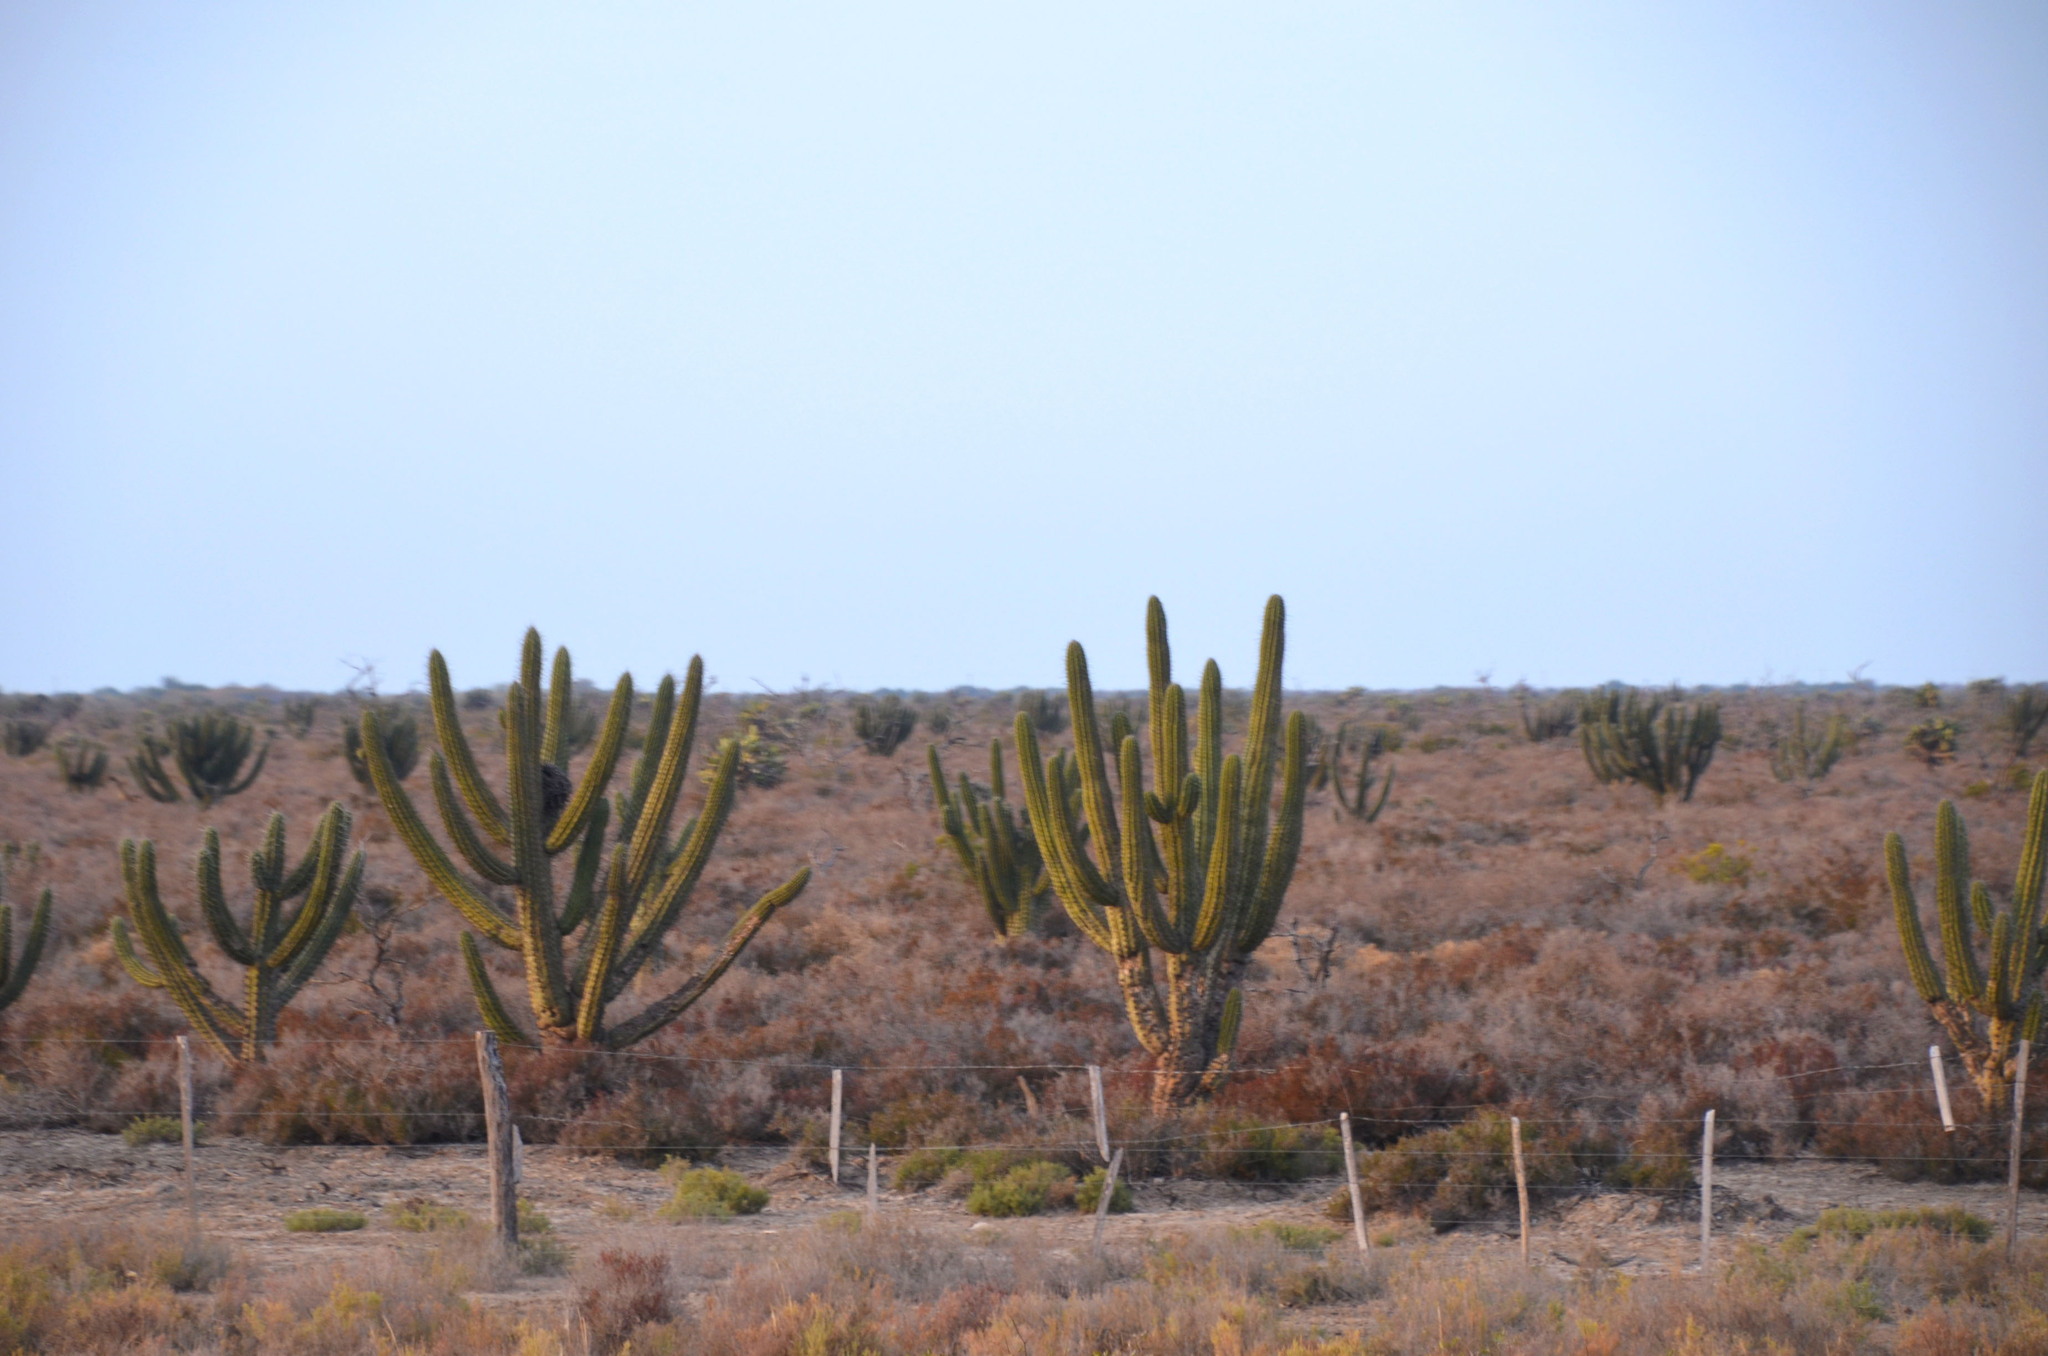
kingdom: Plantae
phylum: Tracheophyta
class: Magnoliopsida
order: Caryophyllales
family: Cactaceae
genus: Stetsonia
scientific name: Stetsonia coryne
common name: Toothpick cactus
